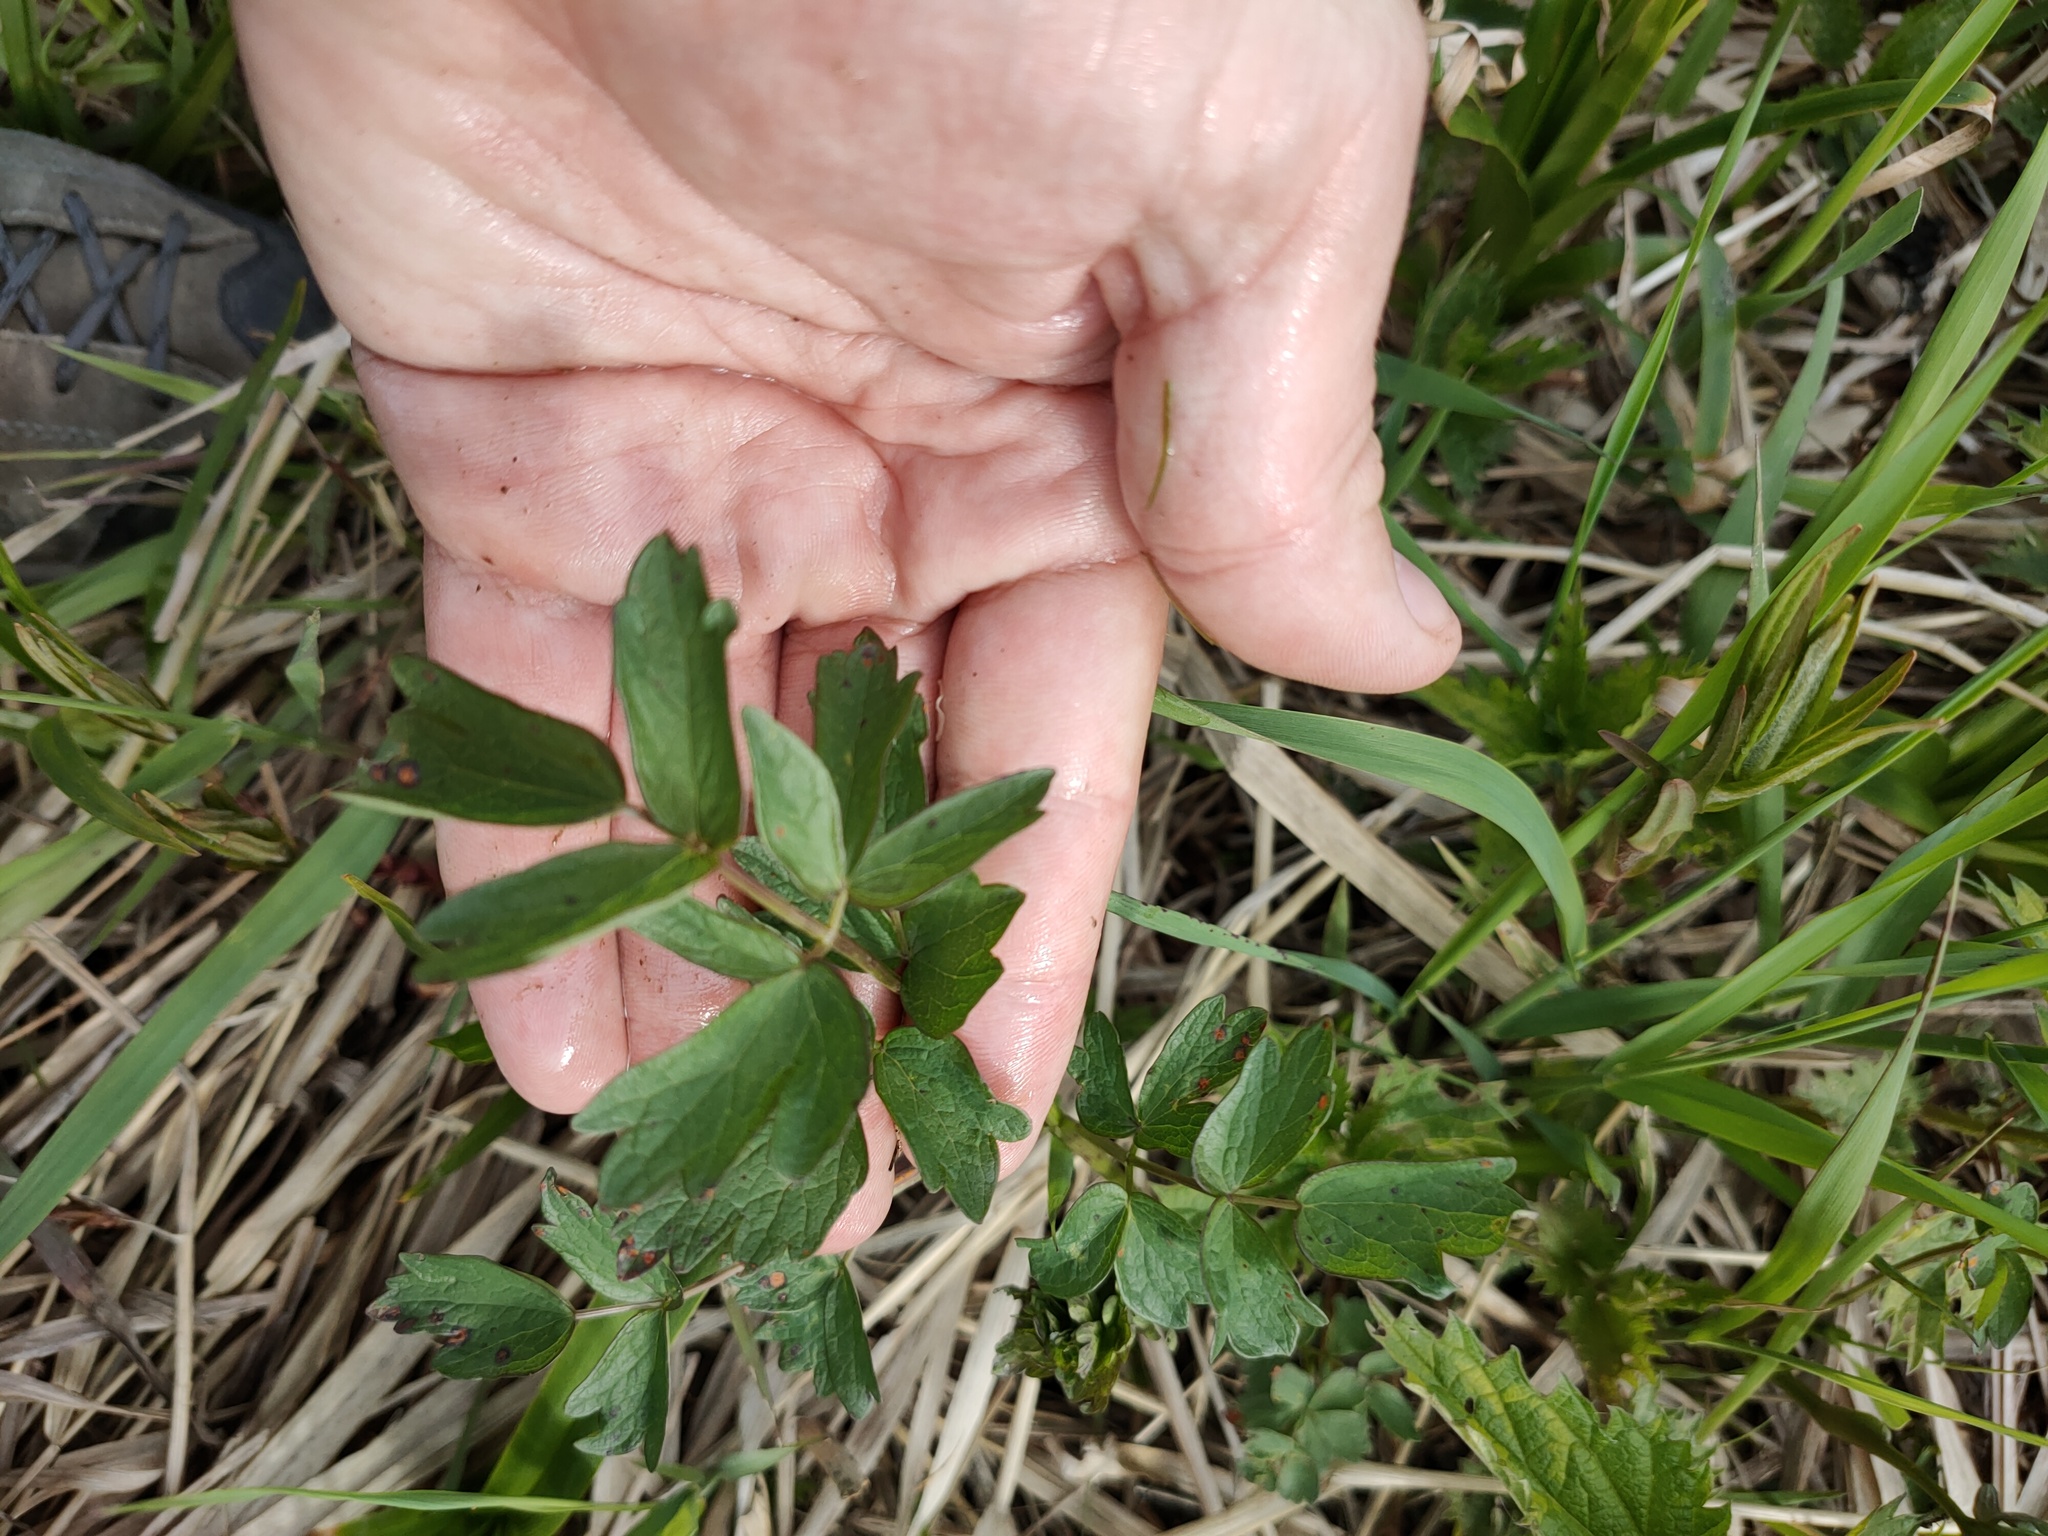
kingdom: Plantae
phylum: Tracheophyta
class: Magnoliopsida
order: Ranunculales
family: Ranunculaceae
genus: Thalictrum
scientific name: Thalictrum
